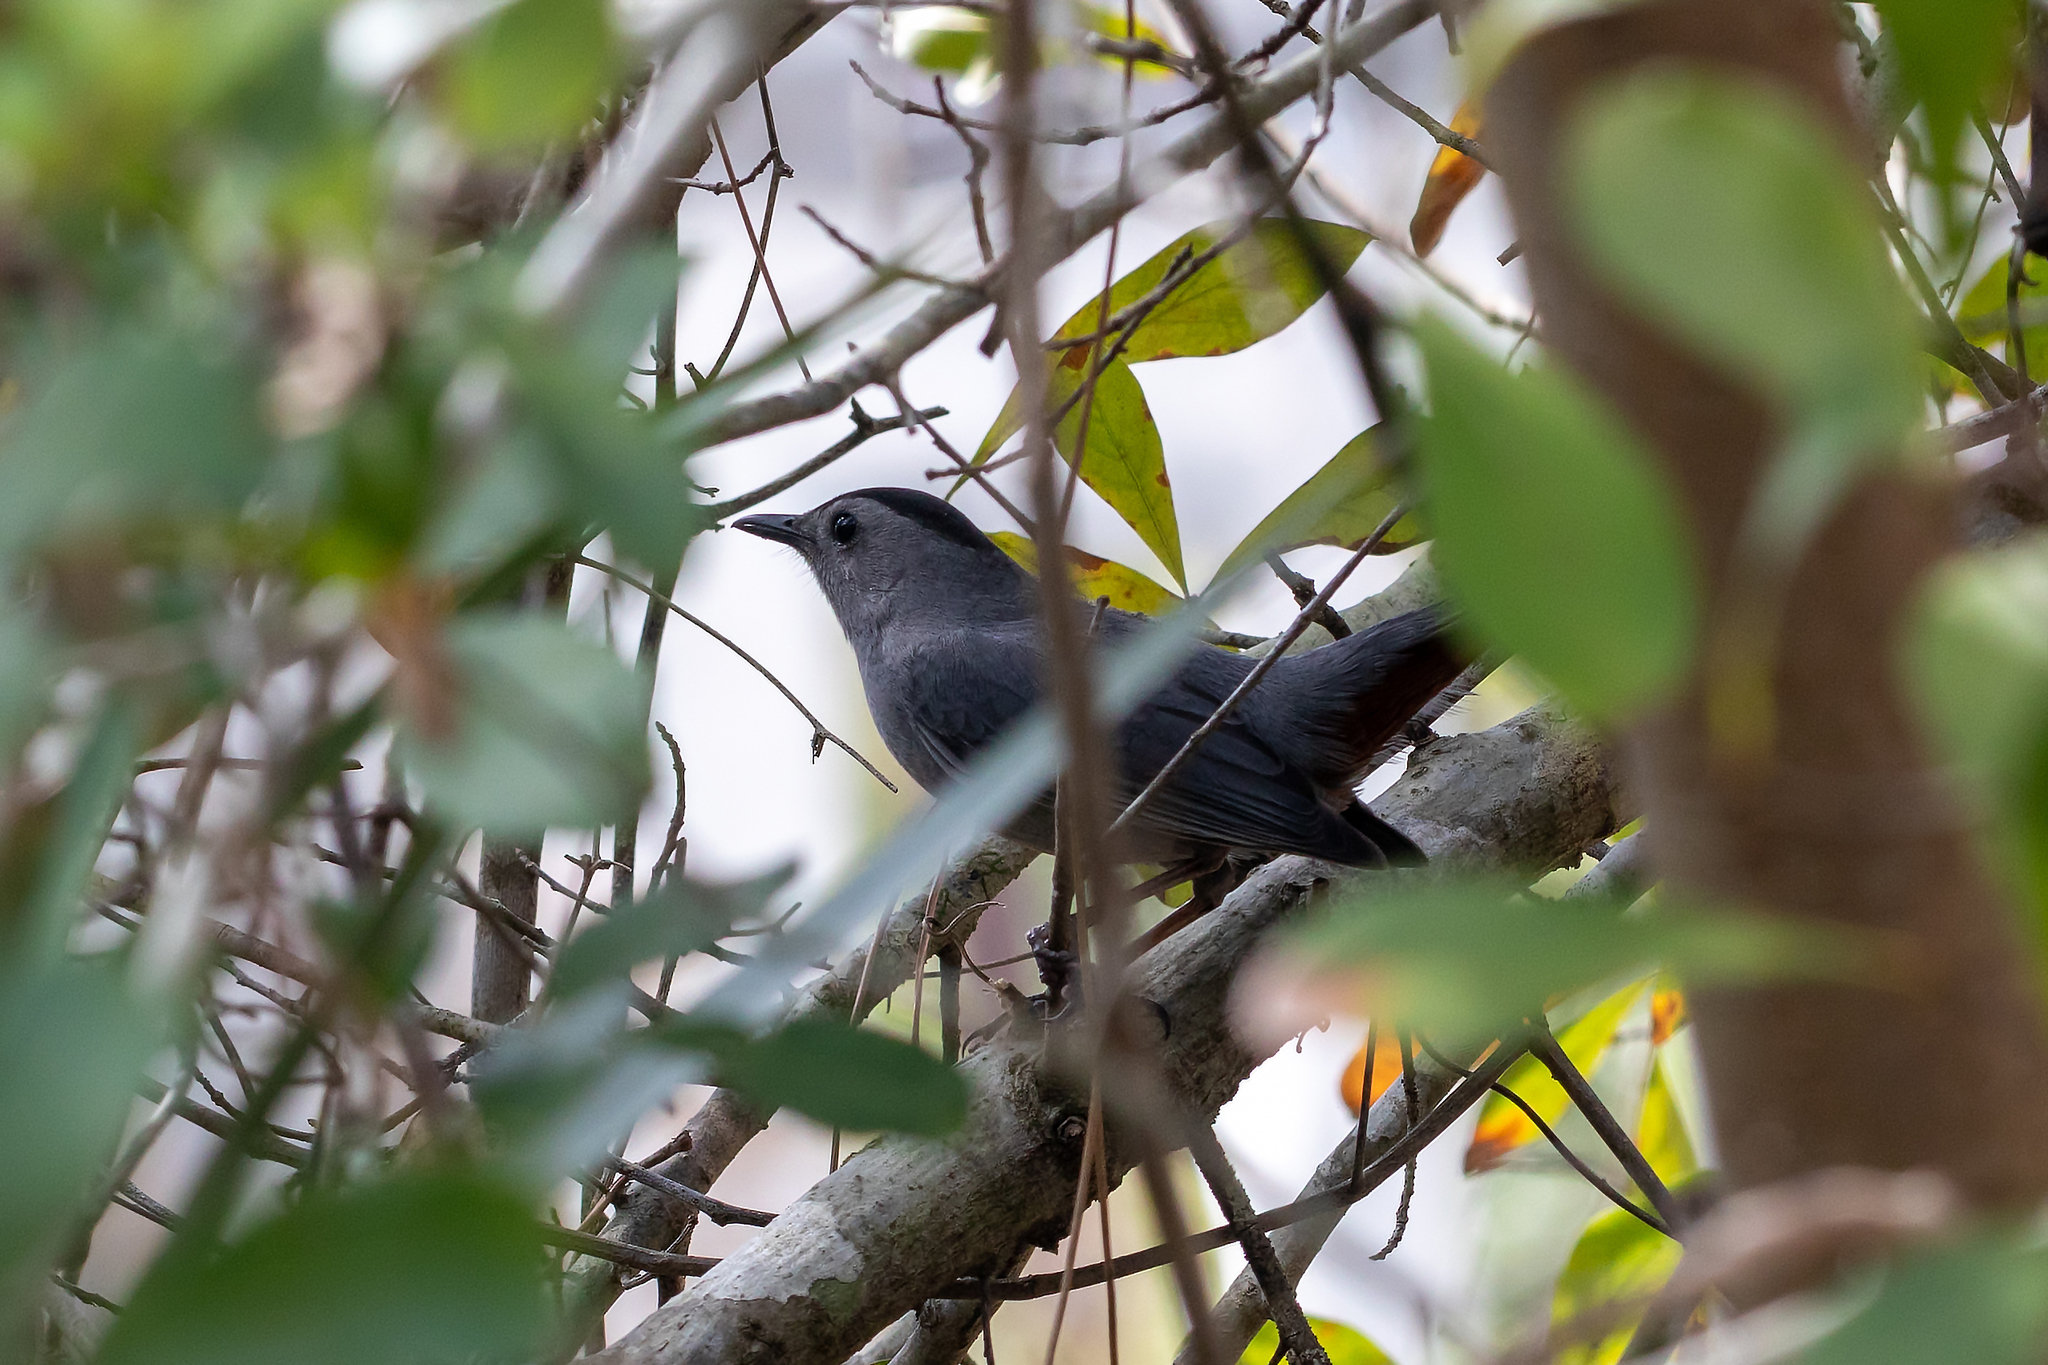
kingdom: Animalia
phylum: Chordata
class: Aves
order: Passeriformes
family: Mimidae
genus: Dumetella
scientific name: Dumetella carolinensis
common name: Gray catbird
